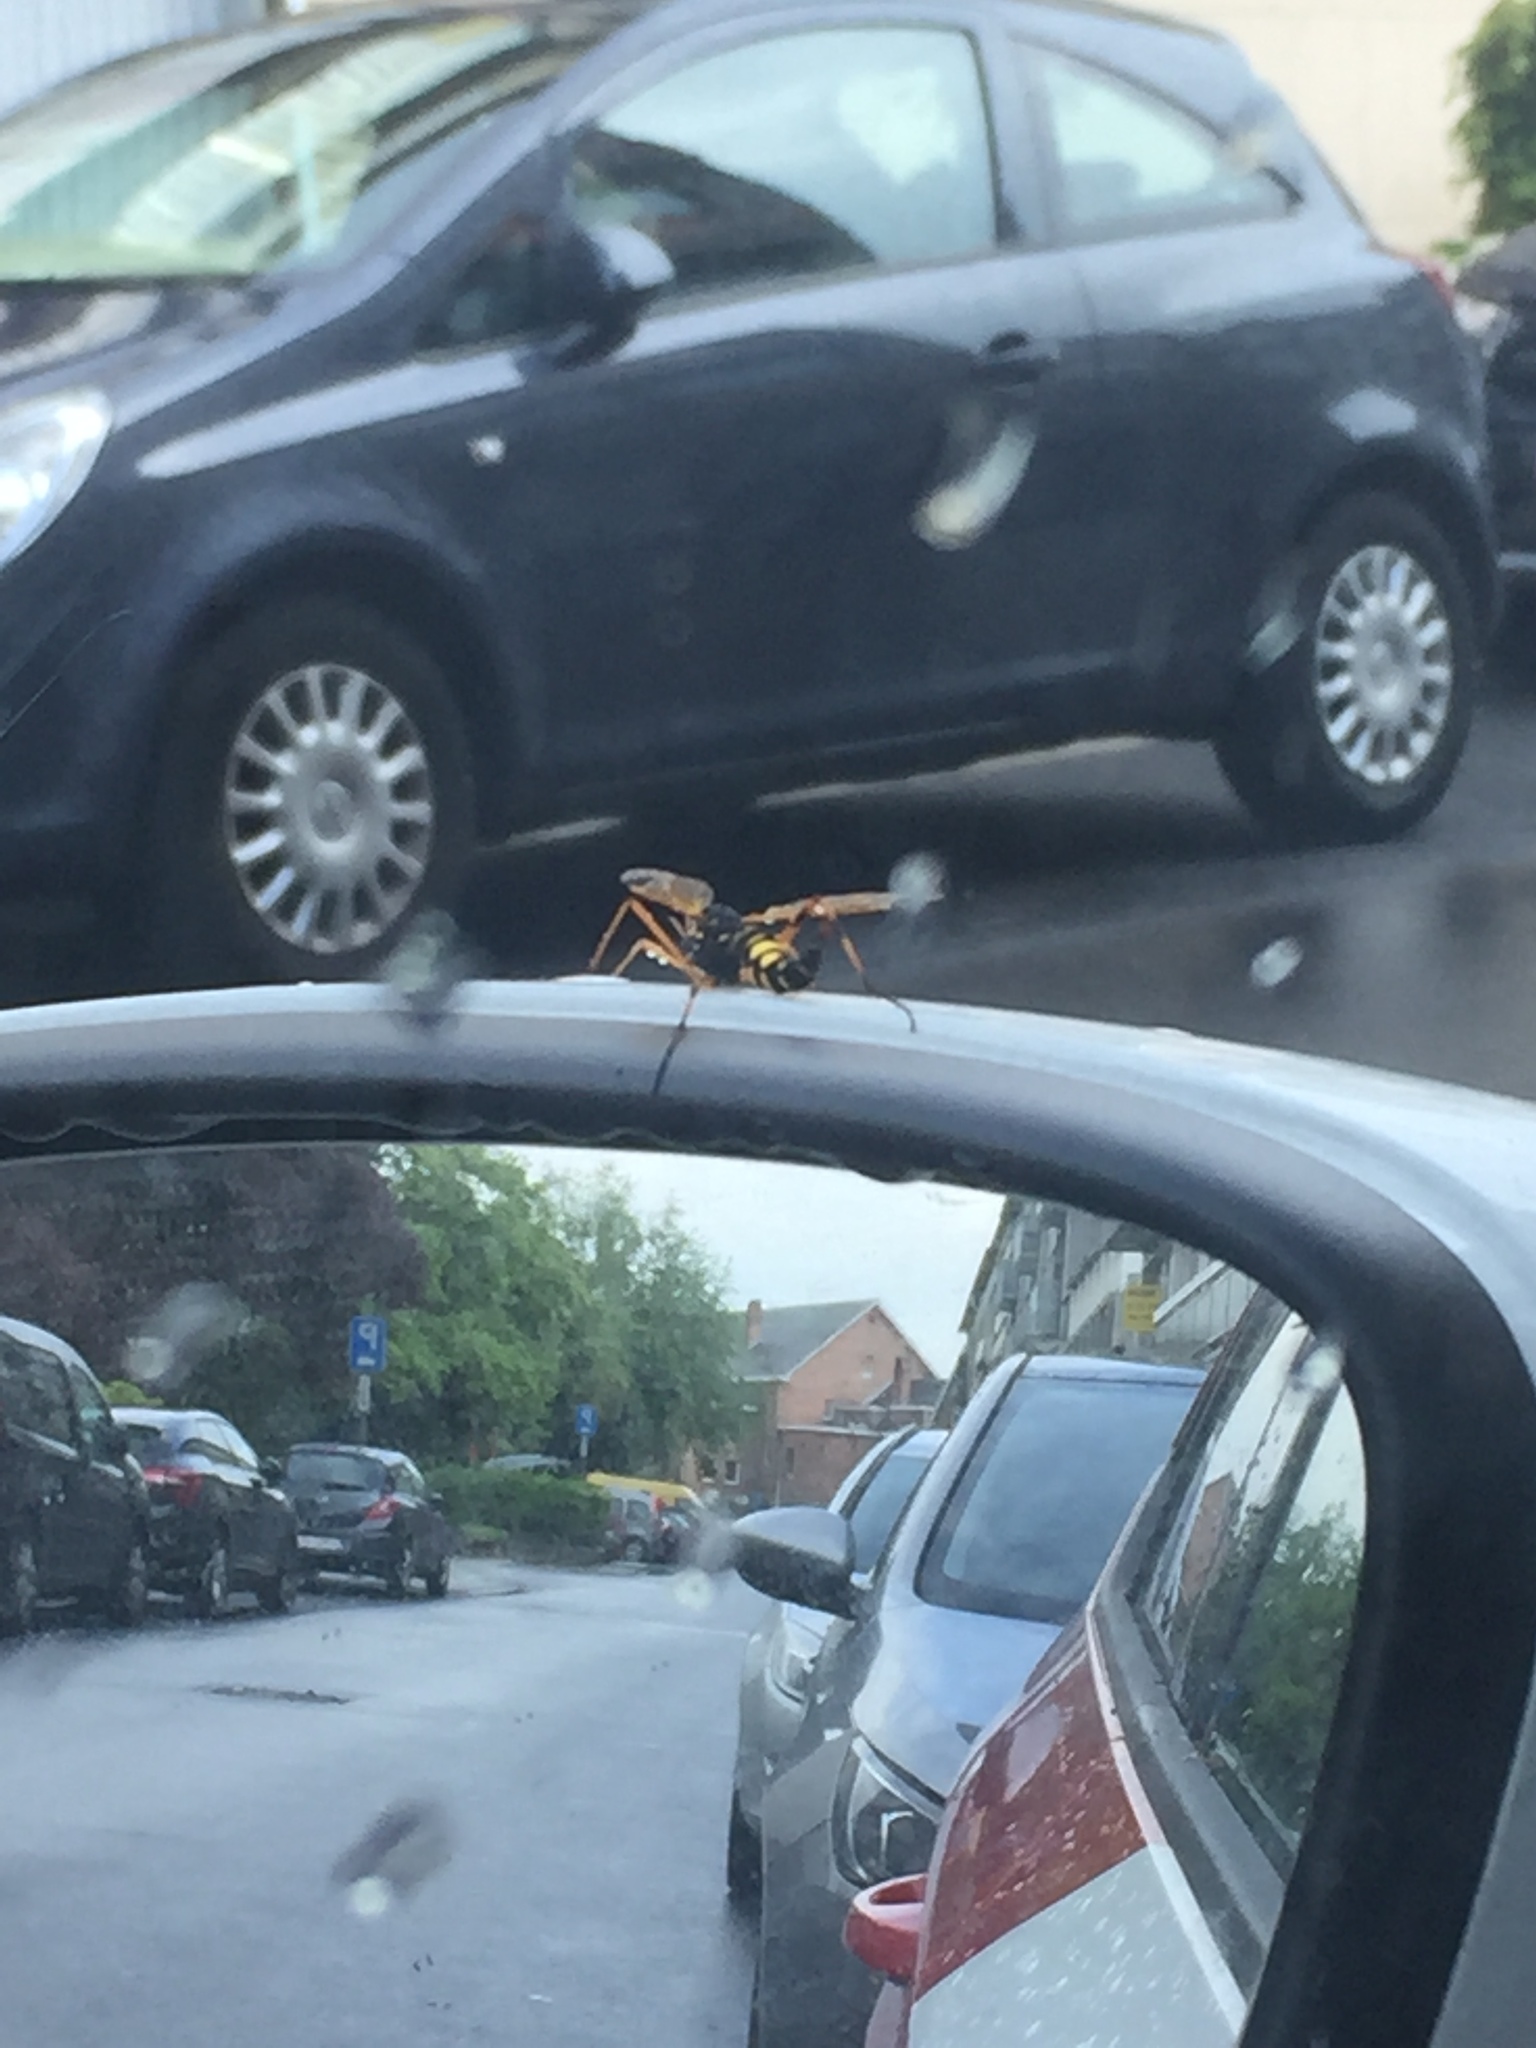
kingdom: Animalia
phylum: Arthropoda
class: Insecta
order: Diptera
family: Tipulidae
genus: Ctenophora
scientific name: Ctenophora festiva
